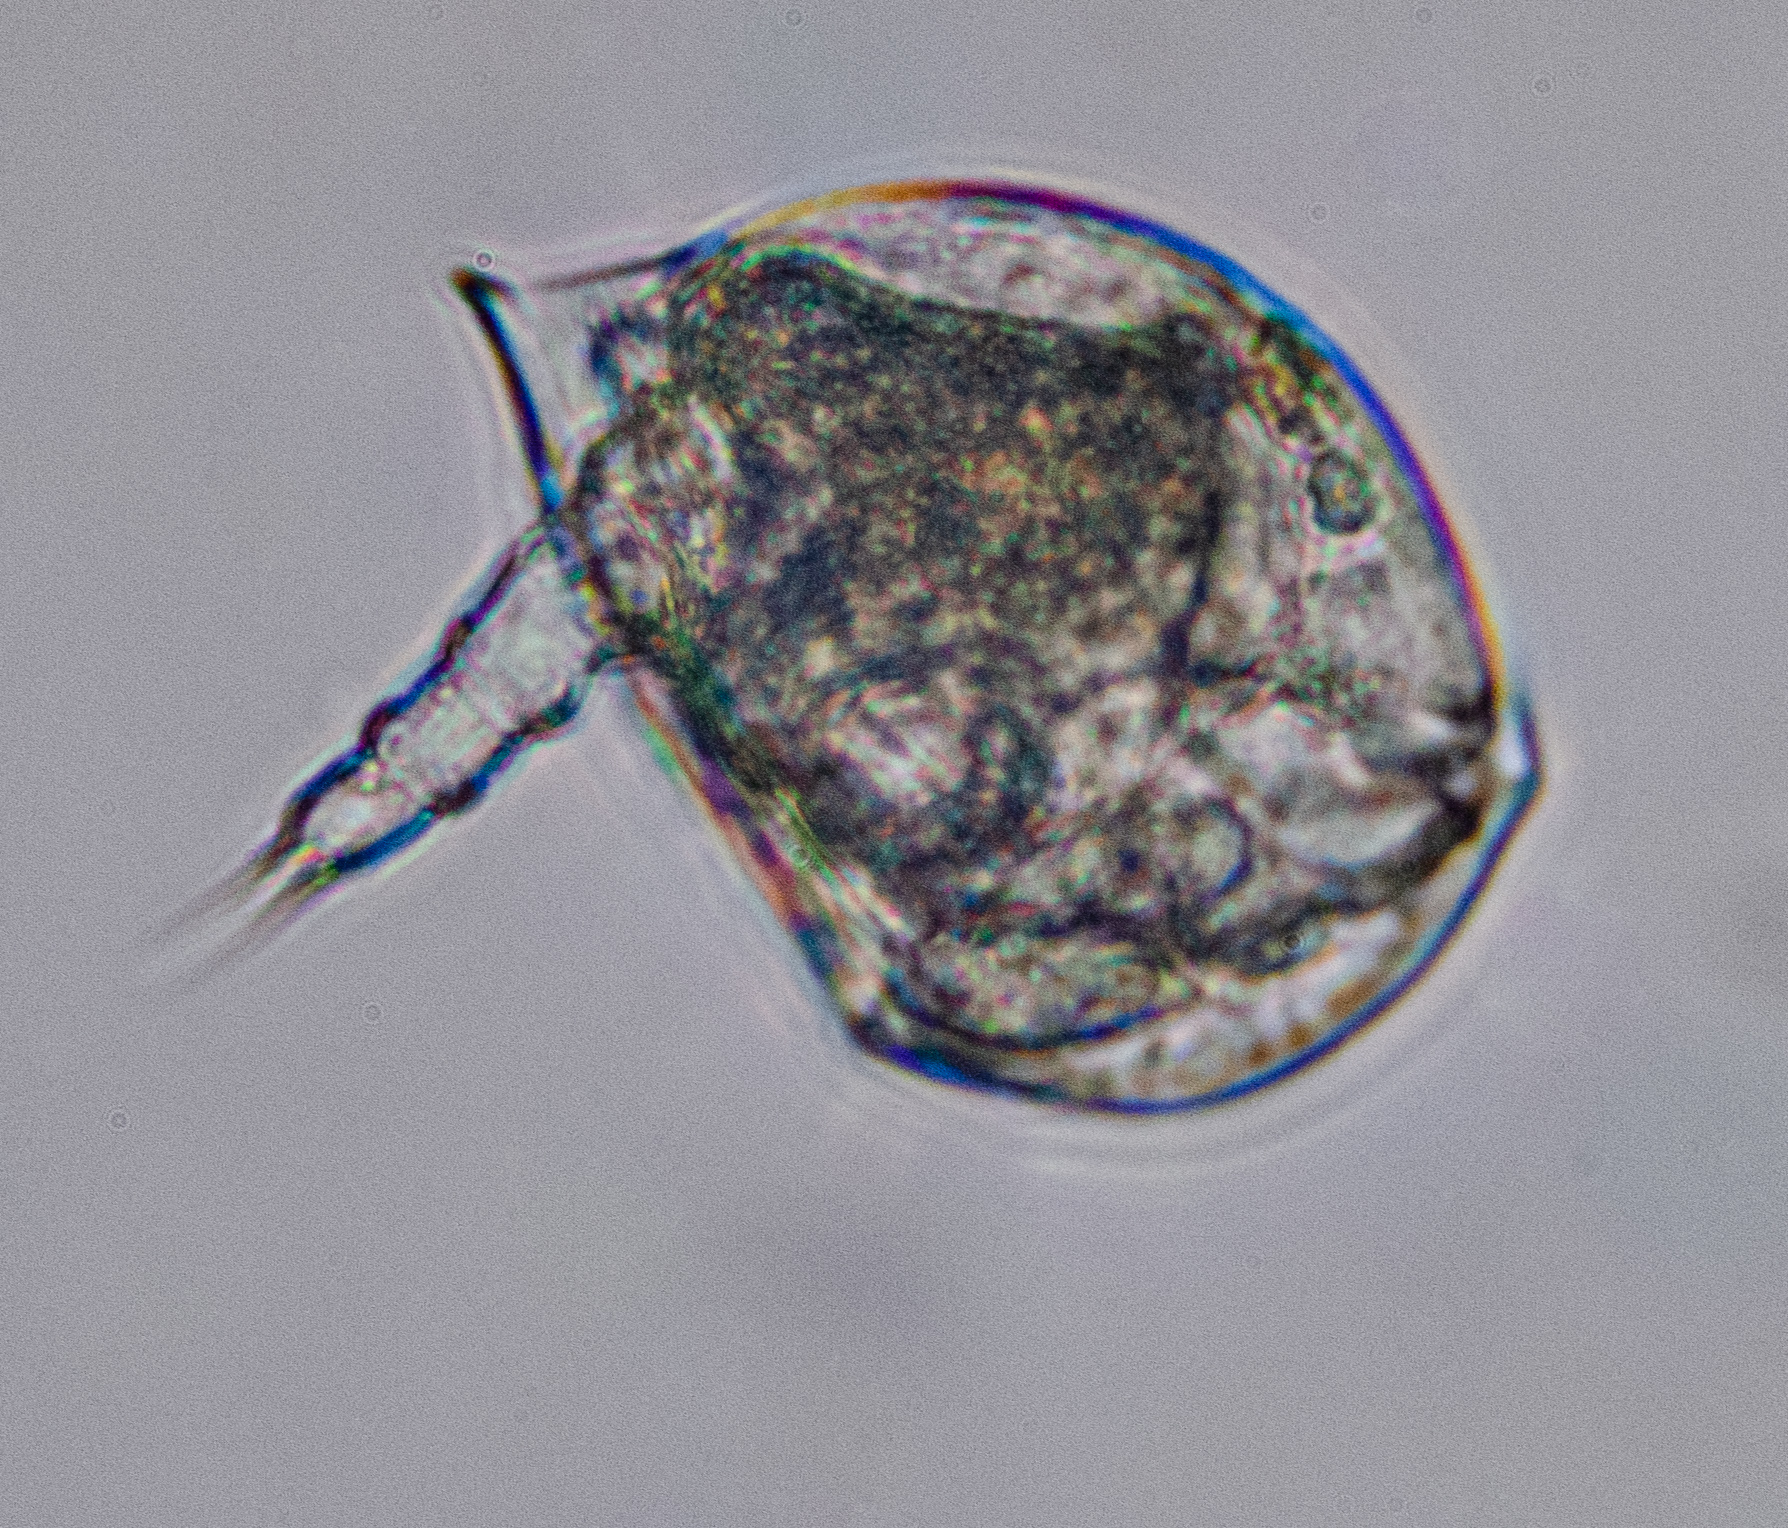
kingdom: Animalia
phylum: Rotifera
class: Eurotatoria
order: Ploima
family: Lepadellidae
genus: Colurella
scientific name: Colurella uncinata
